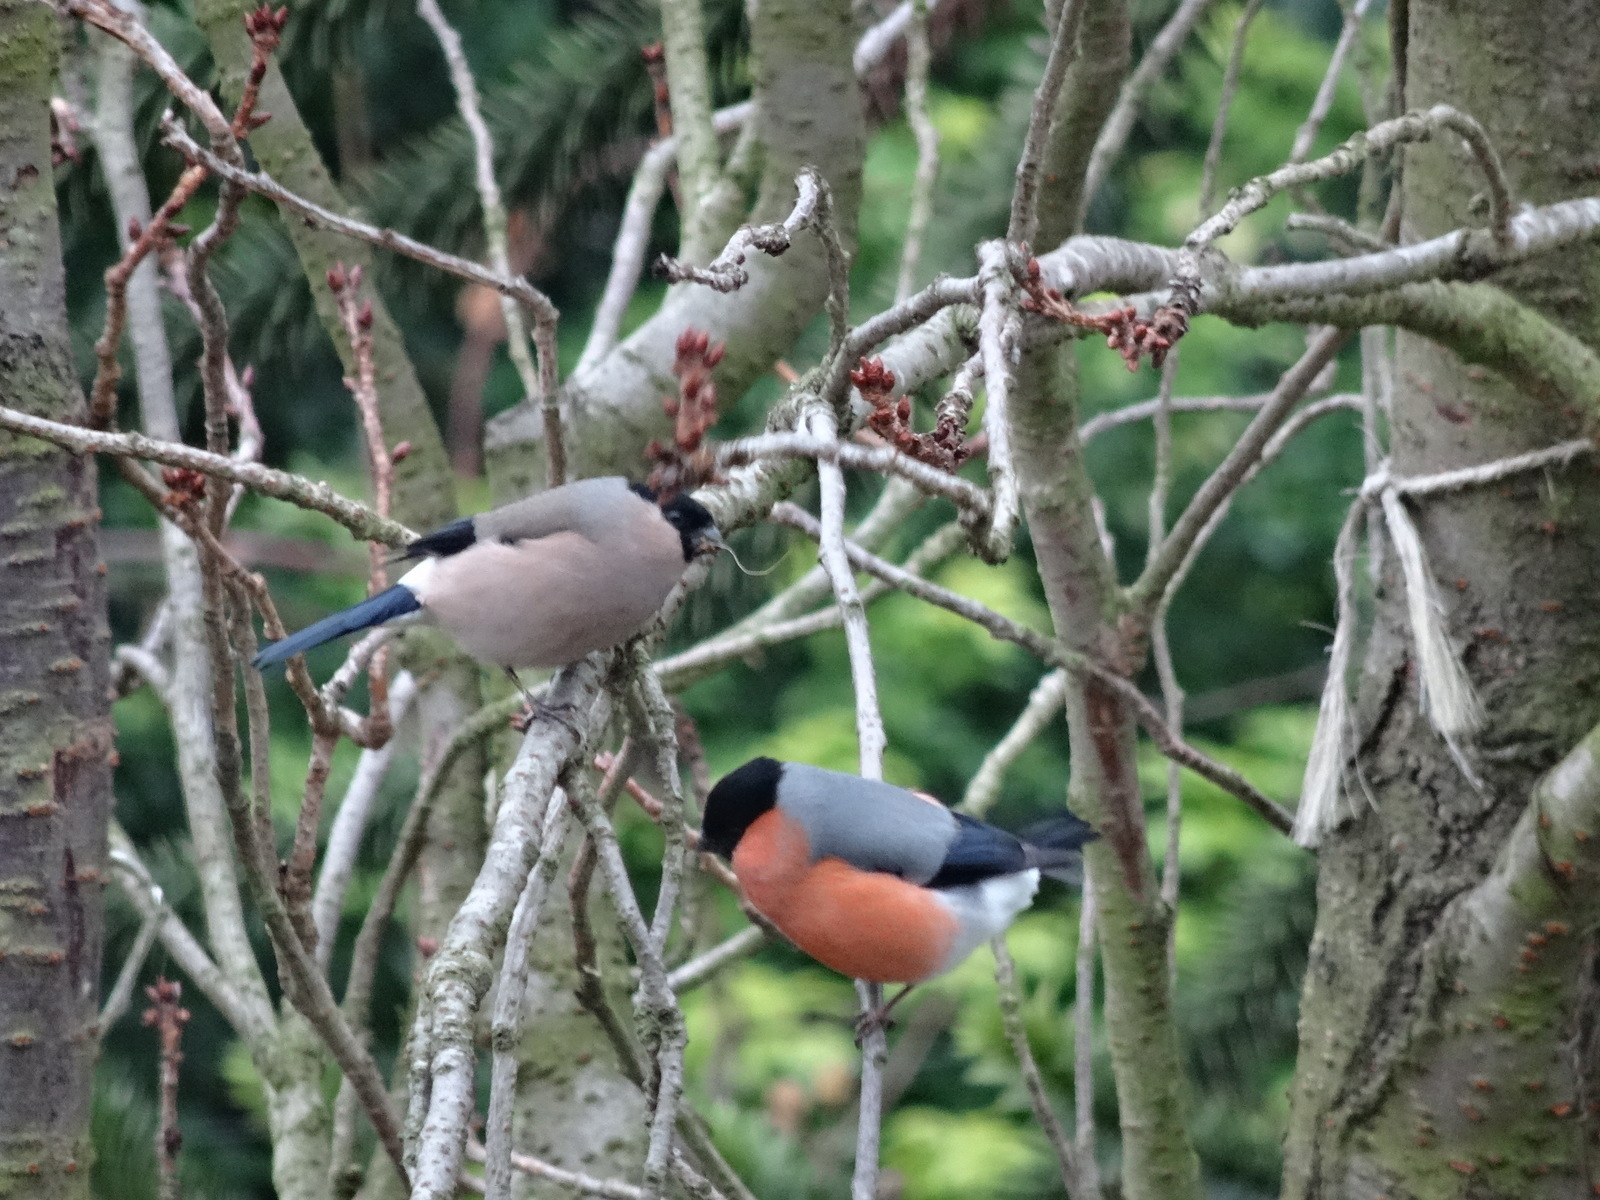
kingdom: Animalia
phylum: Chordata
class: Aves
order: Passeriformes
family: Fringillidae
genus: Pyrrhula
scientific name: Pyrrhula pyrrhula
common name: Eurasian bullfinch
